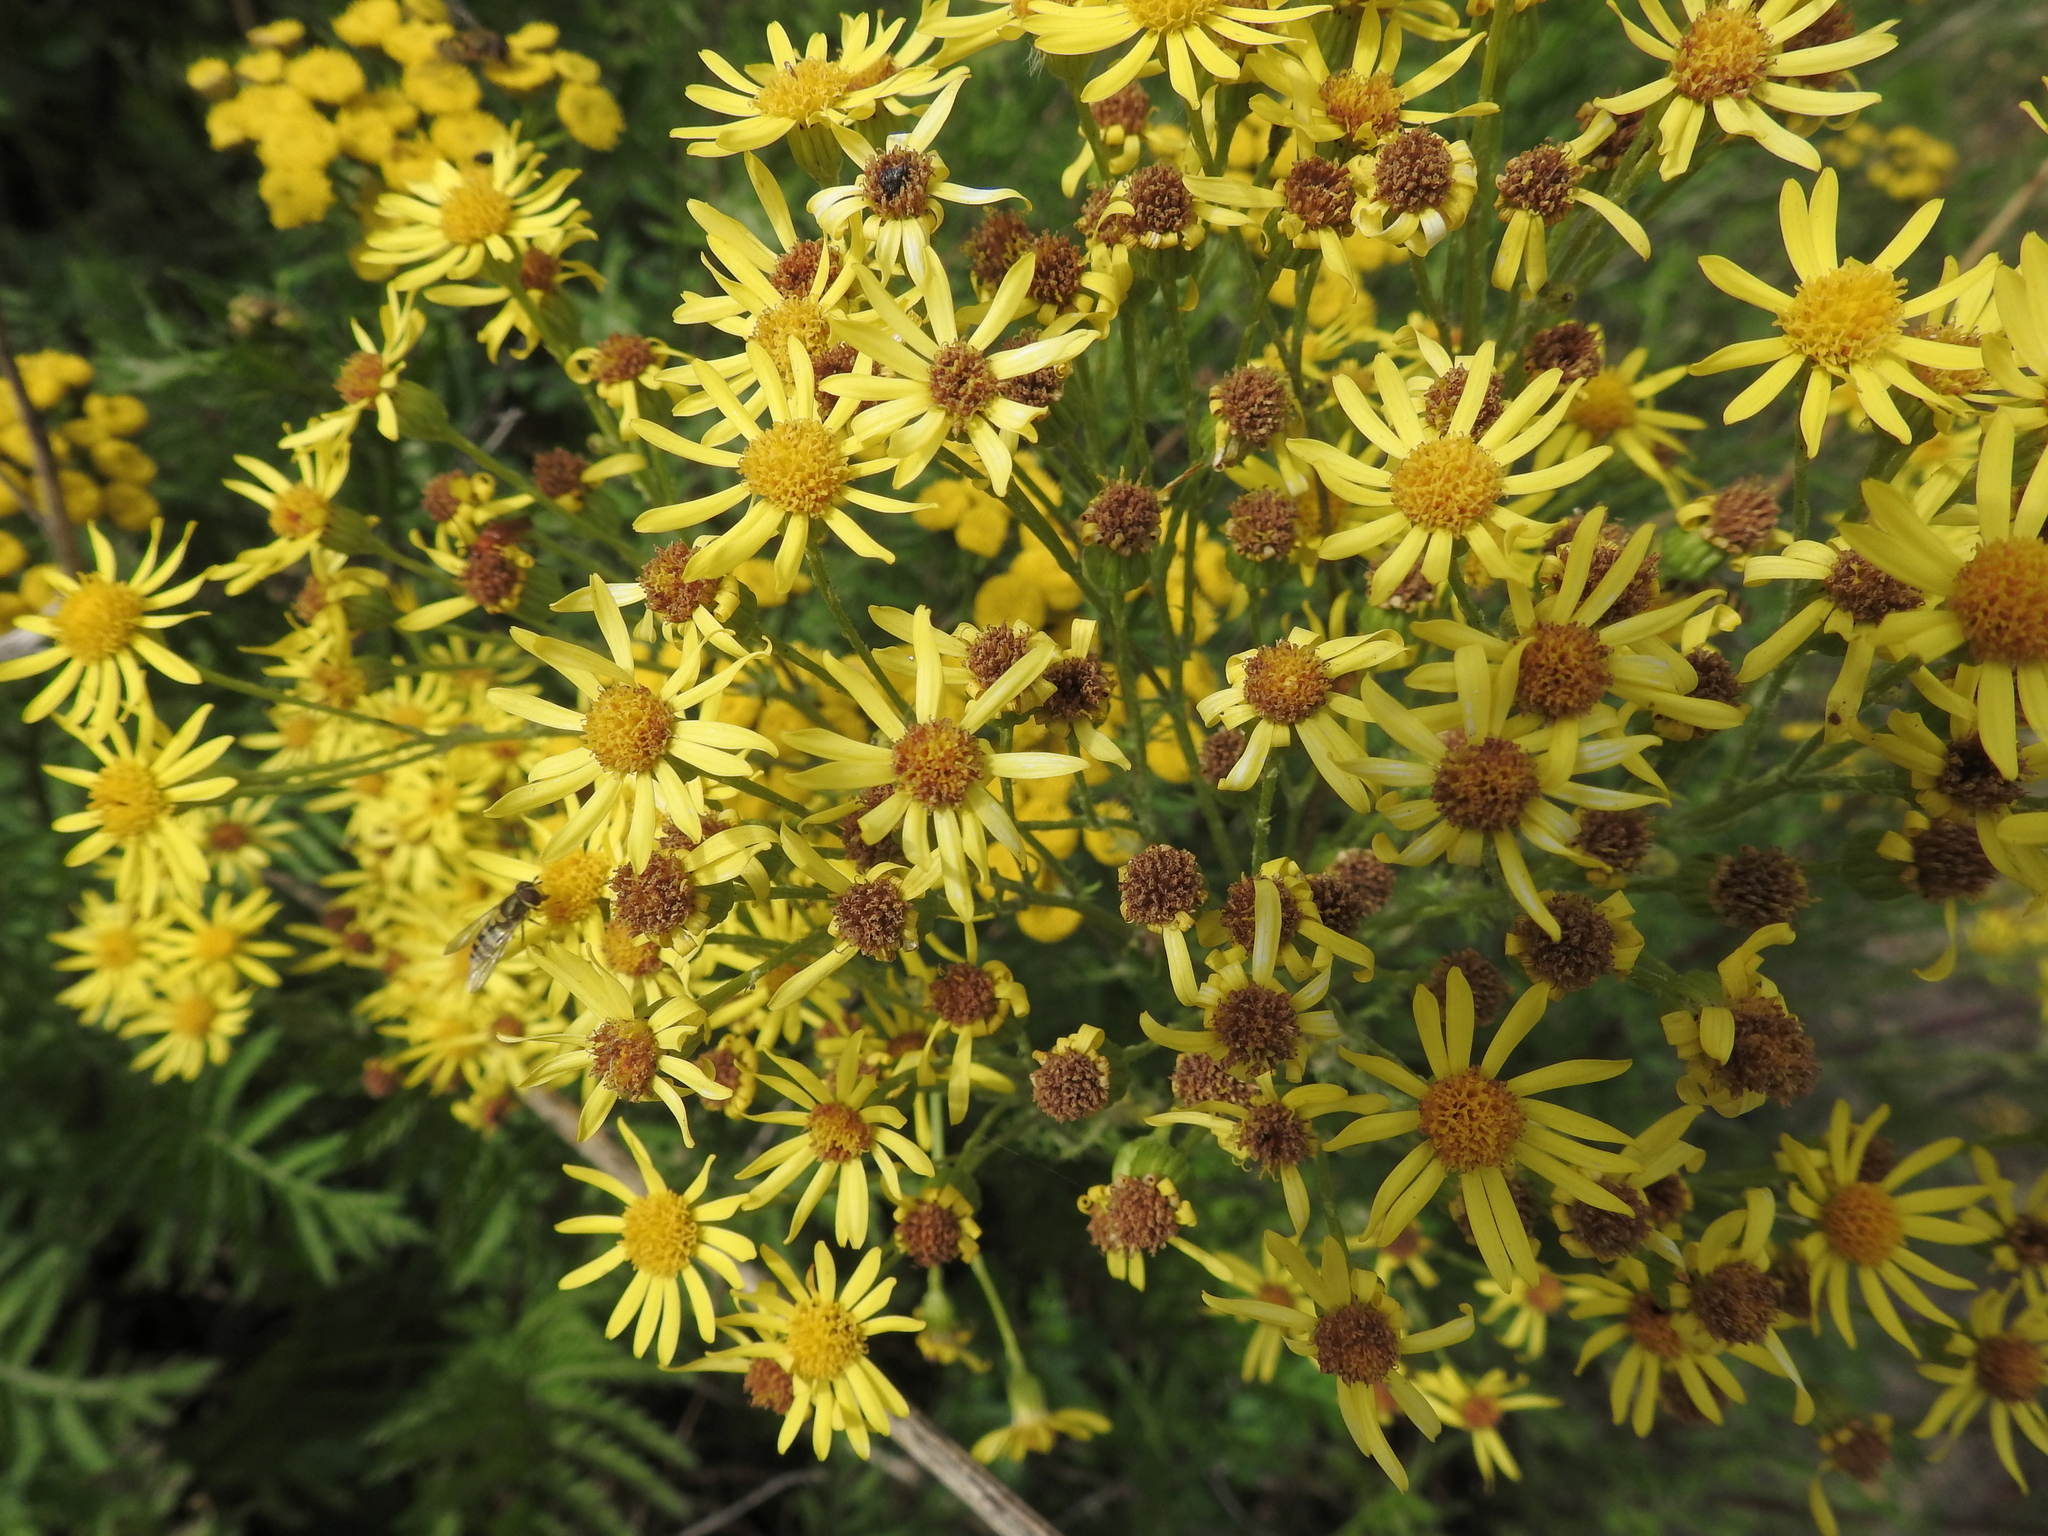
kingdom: Plantae
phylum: Tracheophyta
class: Magnoliopsida
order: Asterales
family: Asteraceae
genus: Jacobaea
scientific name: Jacobaea vulgaris
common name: Stinking willie
